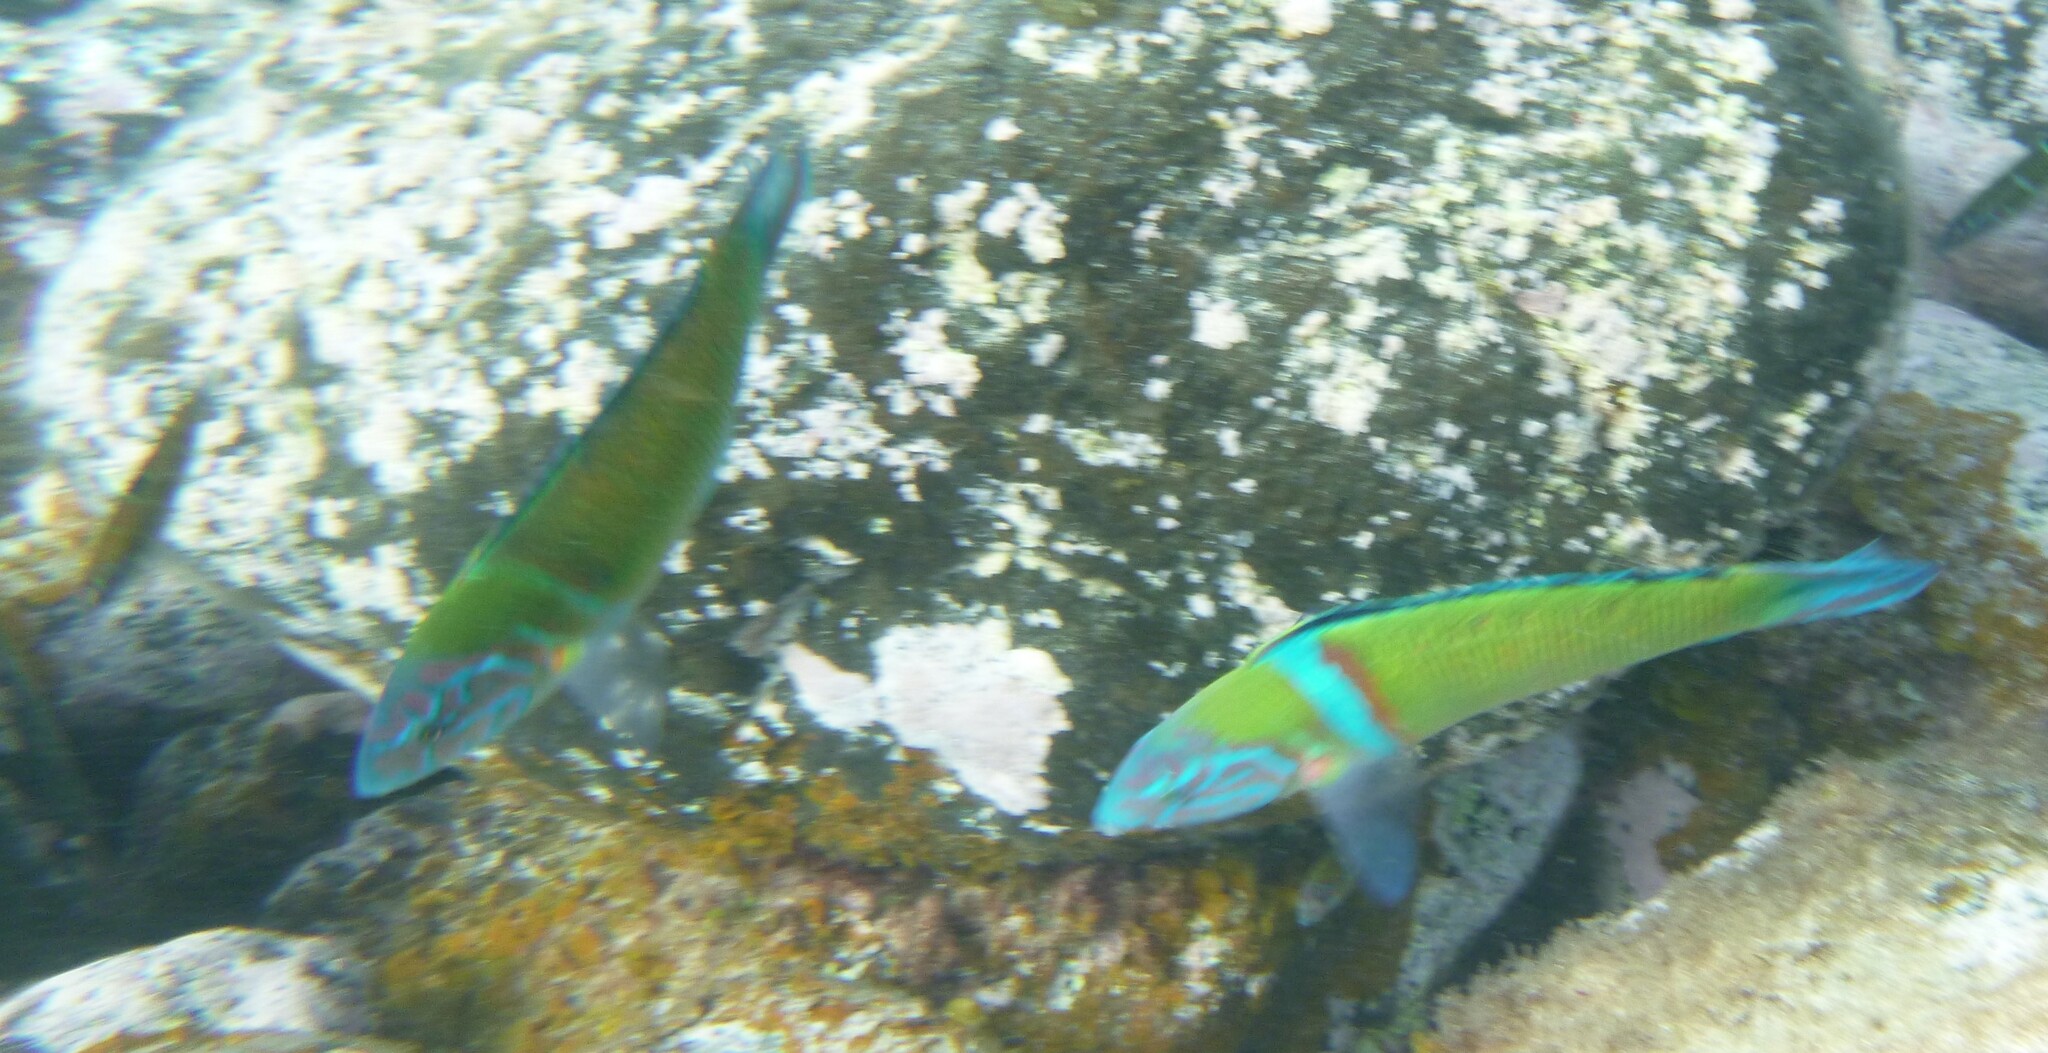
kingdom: Animalia
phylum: Chordata
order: Perciformes
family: Labridae
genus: Thalassoma
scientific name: Thalassoma pavo
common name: Ornate wrasse
